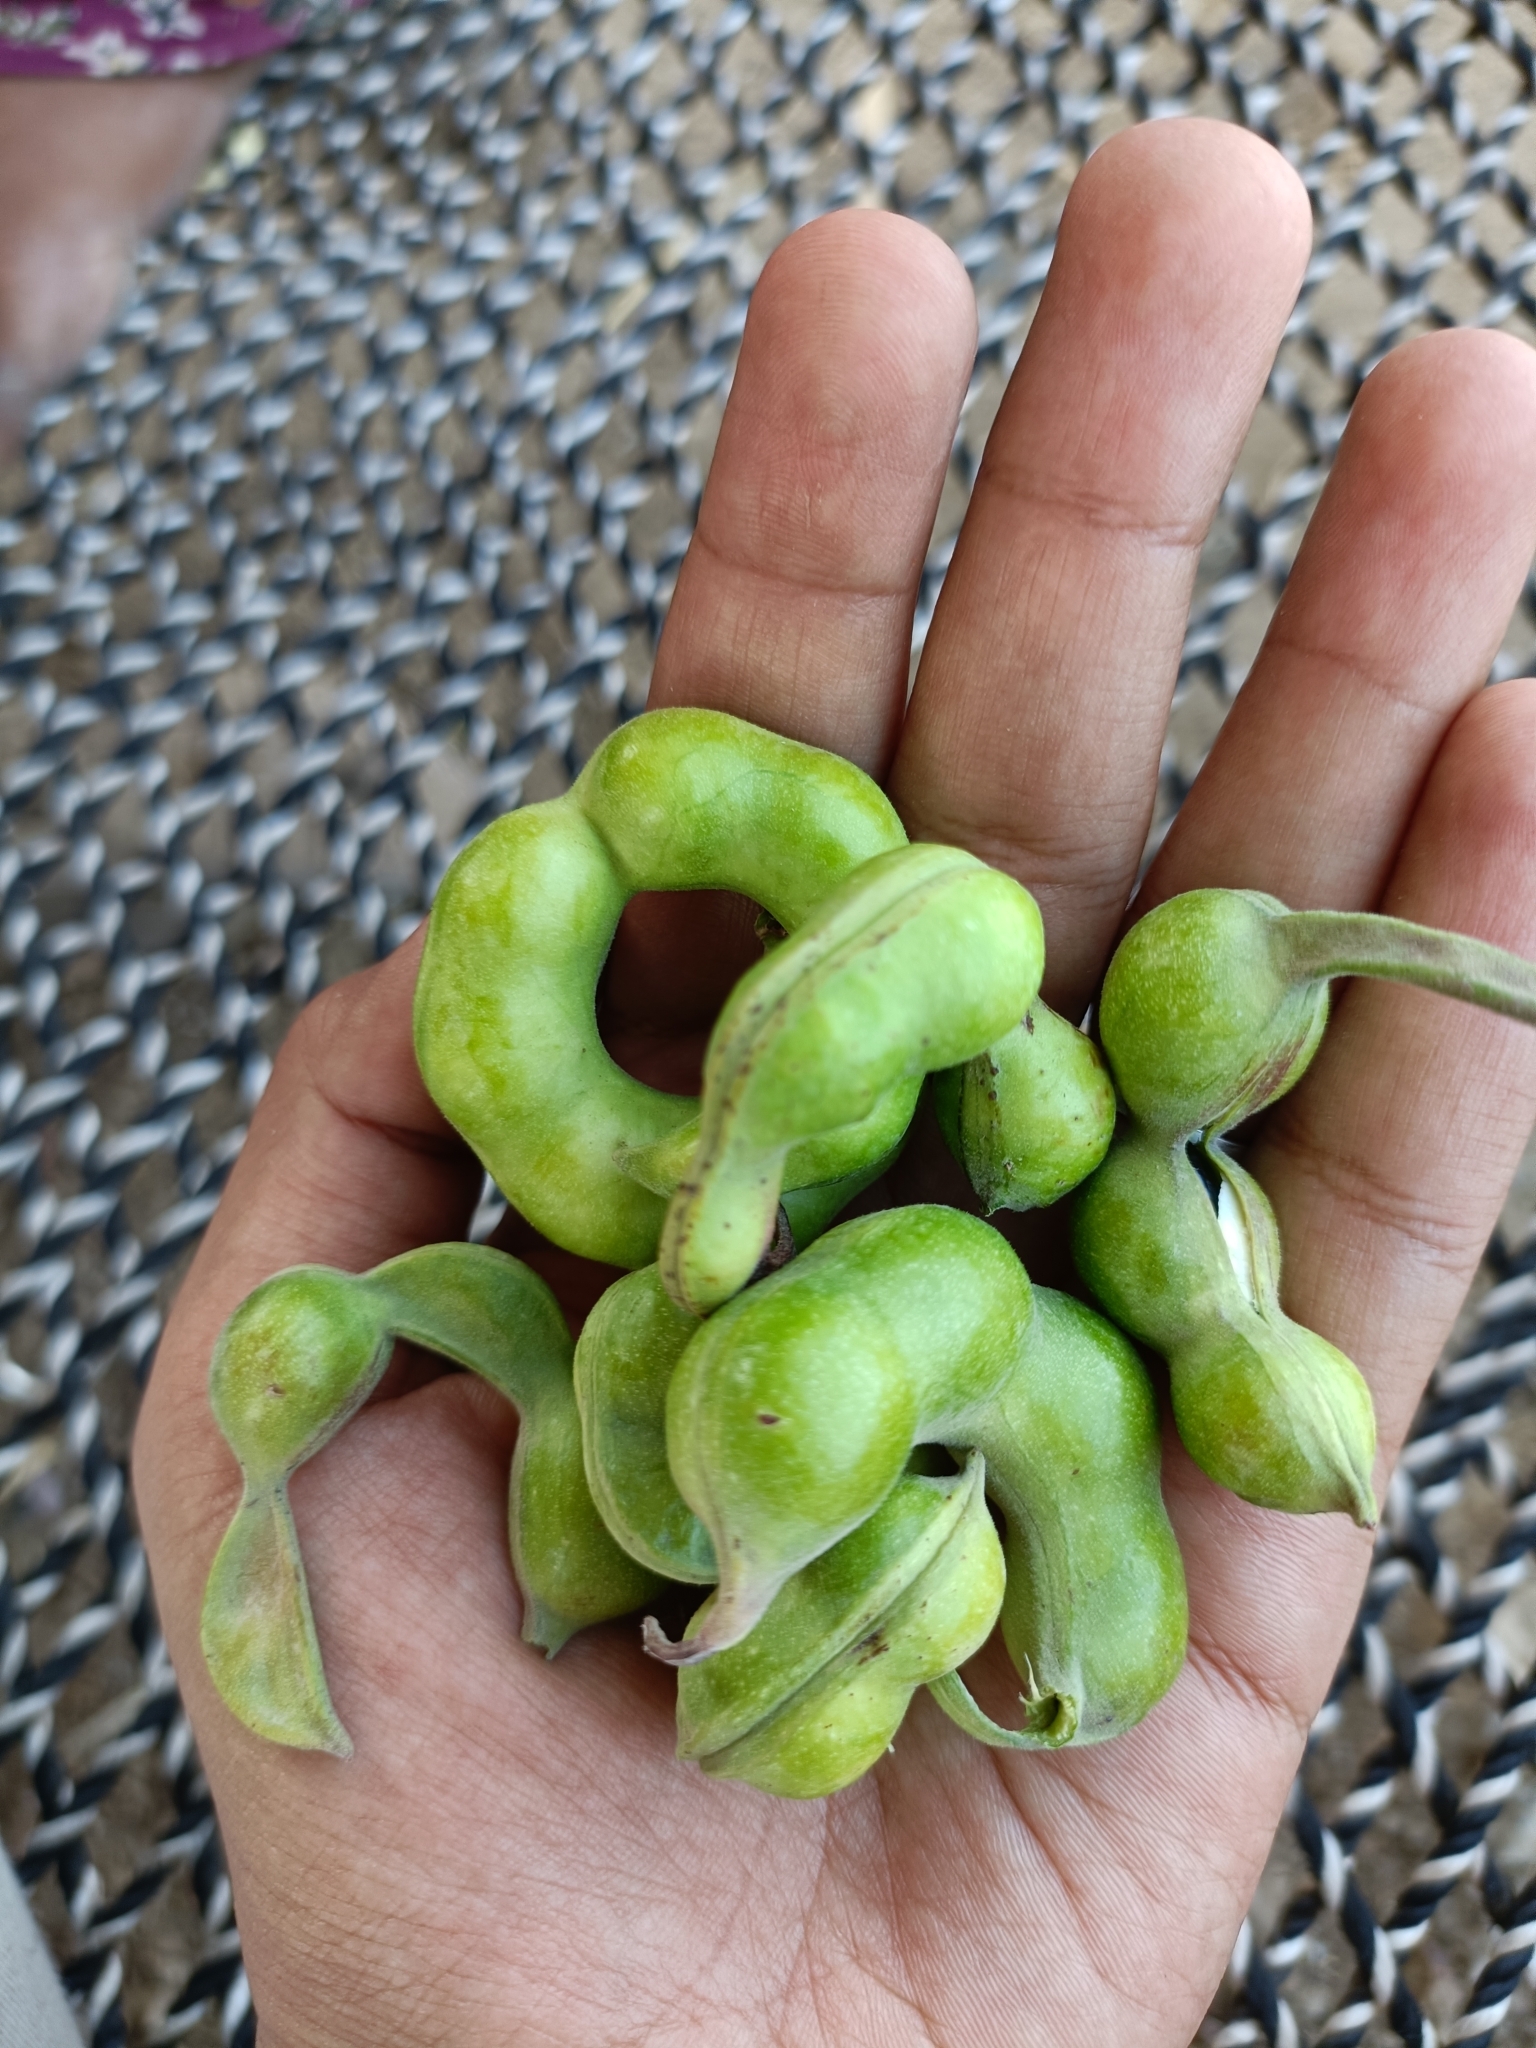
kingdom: Plantae
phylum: Tracheophyta
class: Magnoliopsida
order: Fabales
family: Fabaceae
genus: Pithecellobium
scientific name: Pithecellobium dulce
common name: Monkeypod
